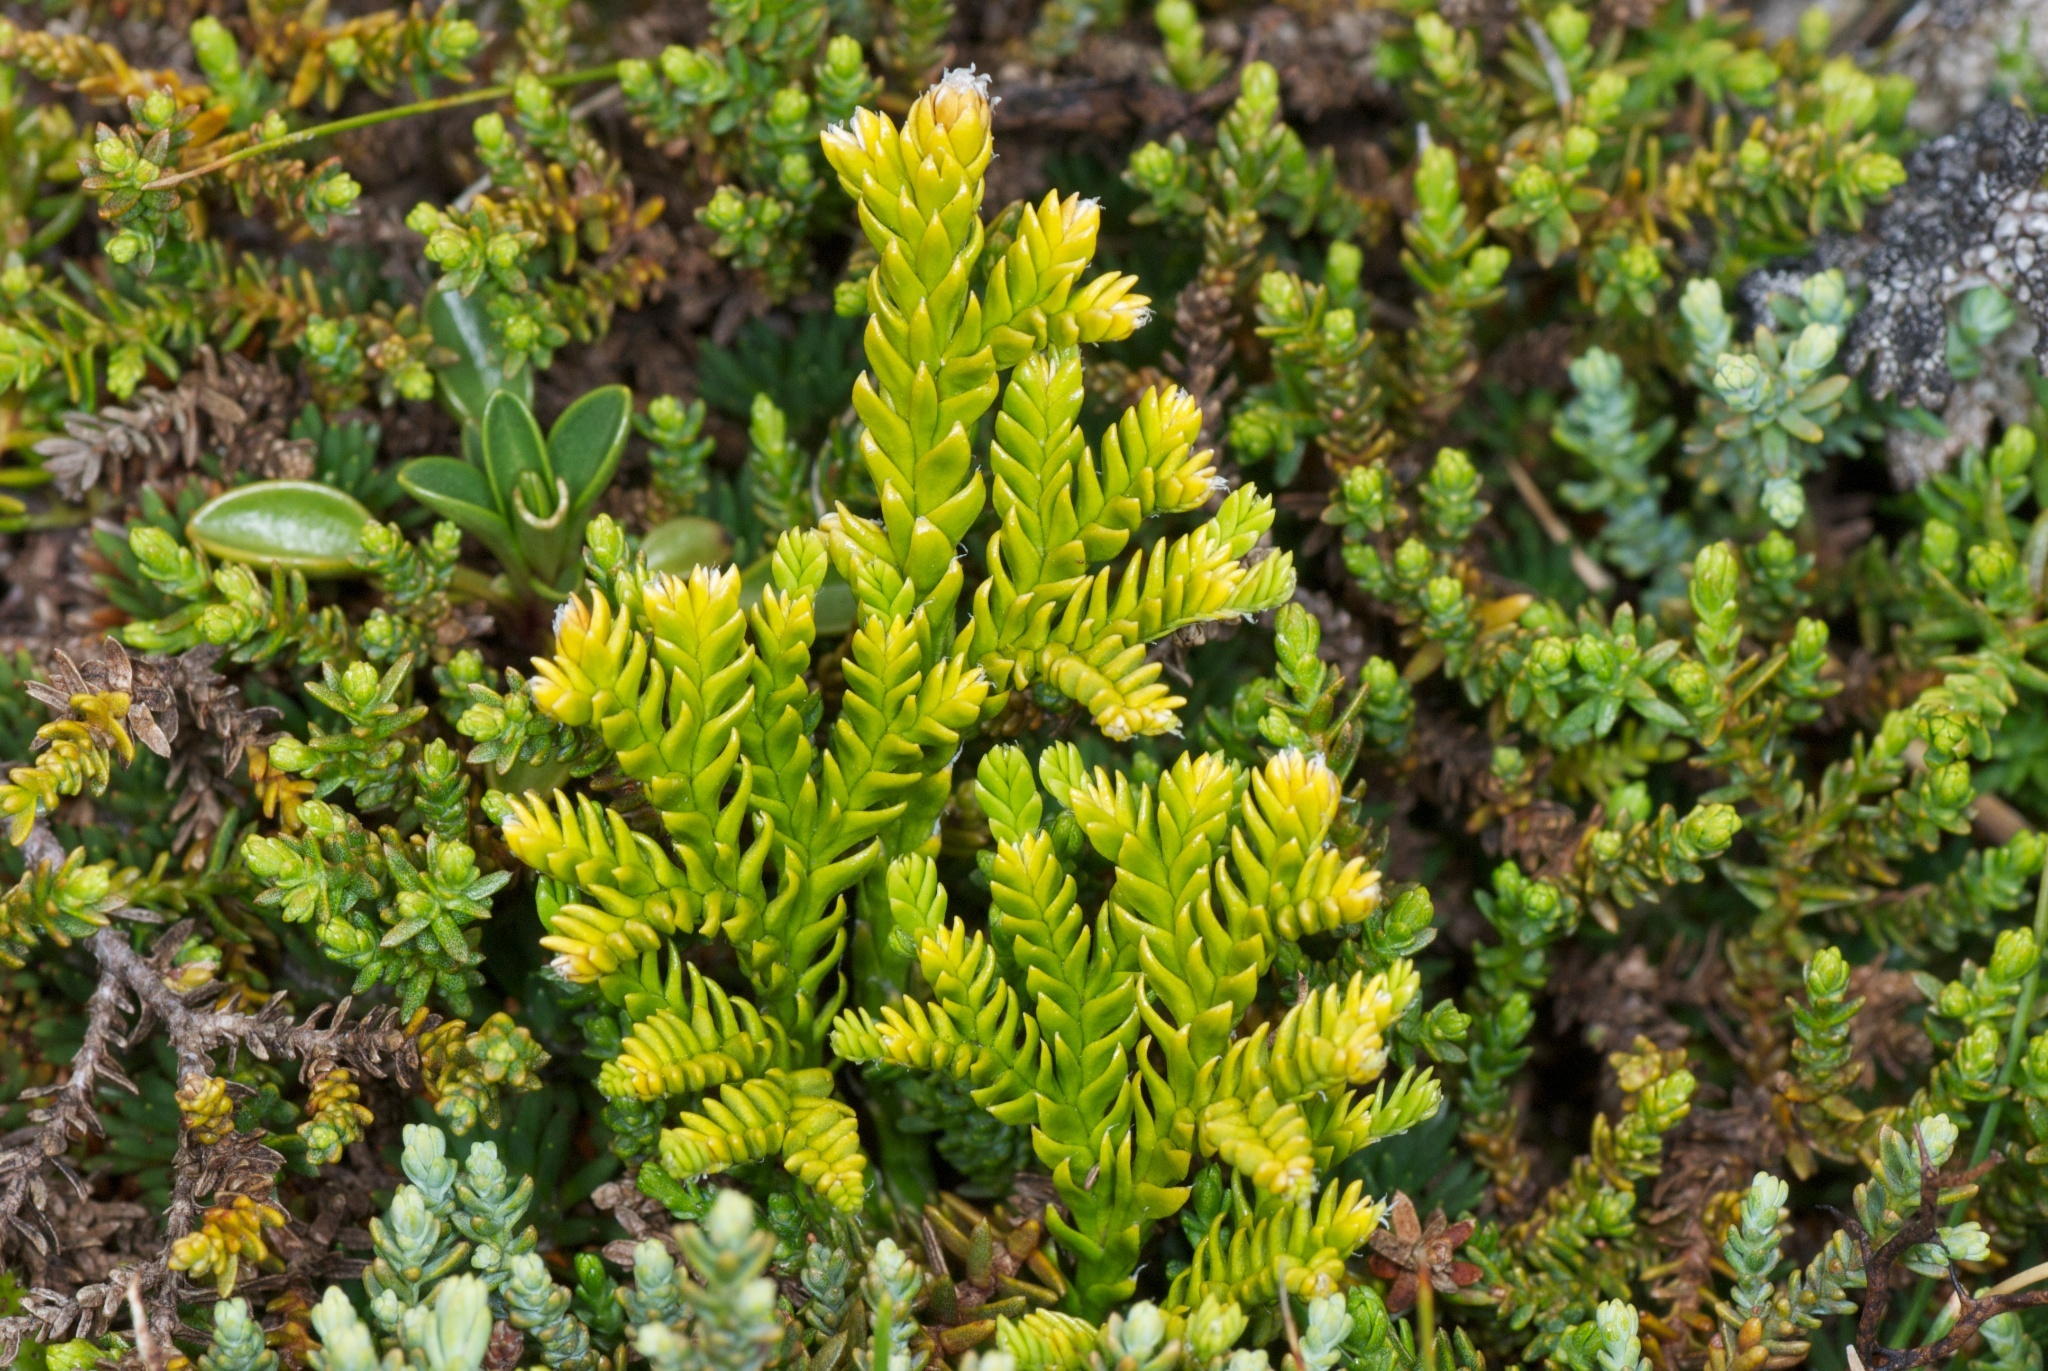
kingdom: Plantae
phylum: Tracheophyta
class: Lycopodiopsida
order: Lycopodiales
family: Lycopodiaceae
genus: Diphasium
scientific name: Diphasium scariosum
